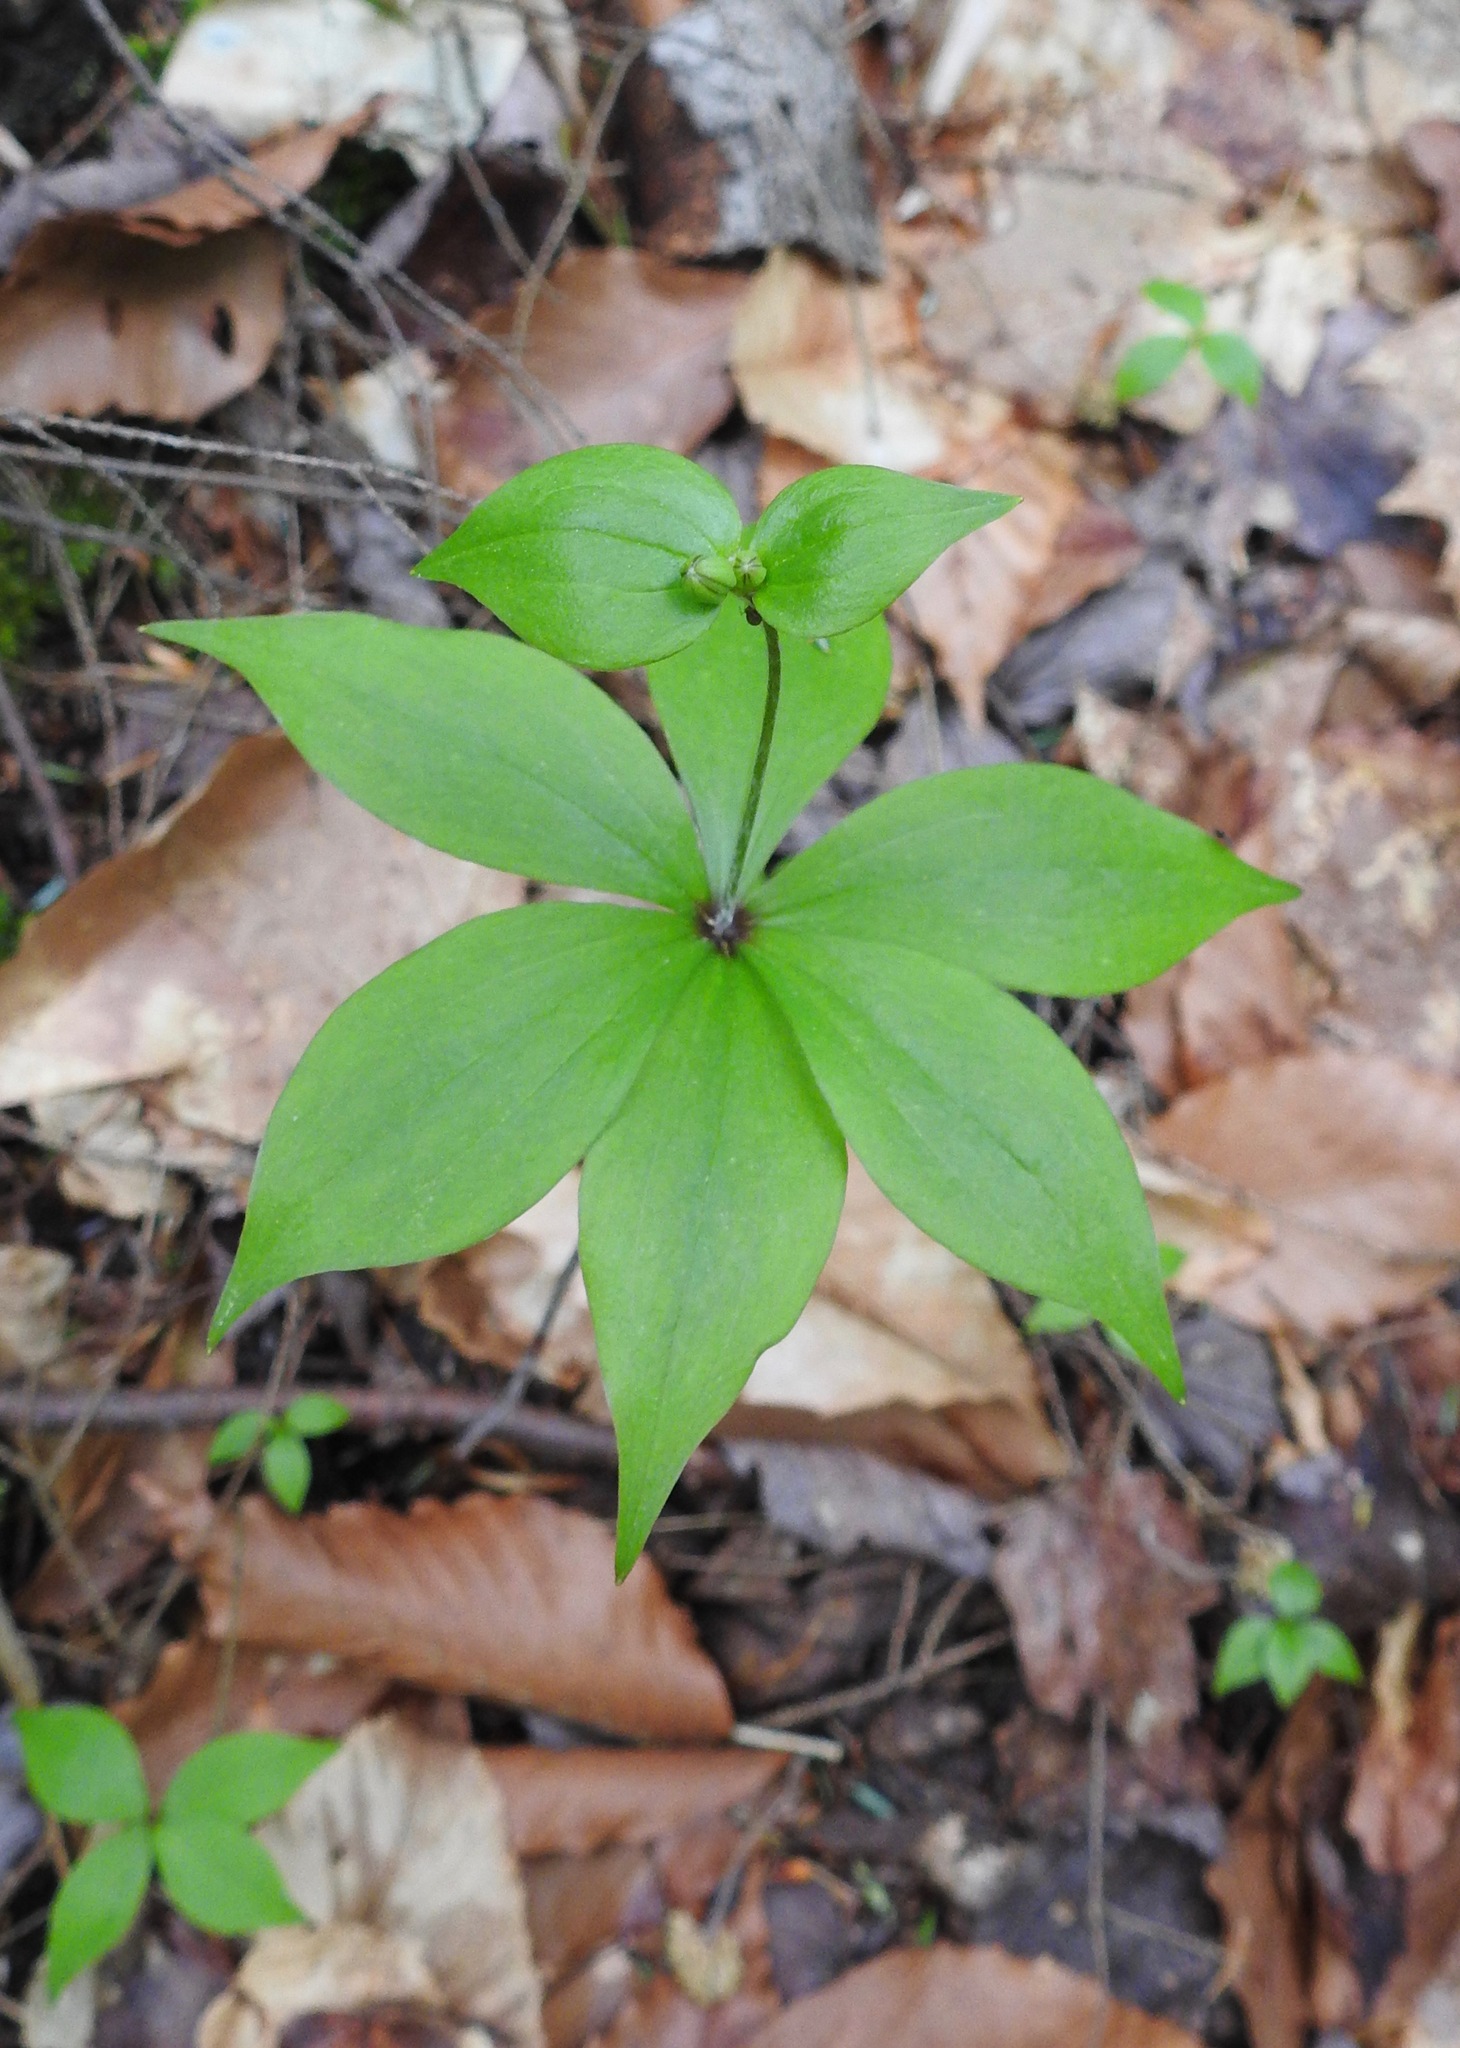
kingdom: Plantae
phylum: Tracheophyta
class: Liliopsida
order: Liliales
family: Liliaceae
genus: Medeola
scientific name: Medeola virginiana
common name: Indian cucumber-root
